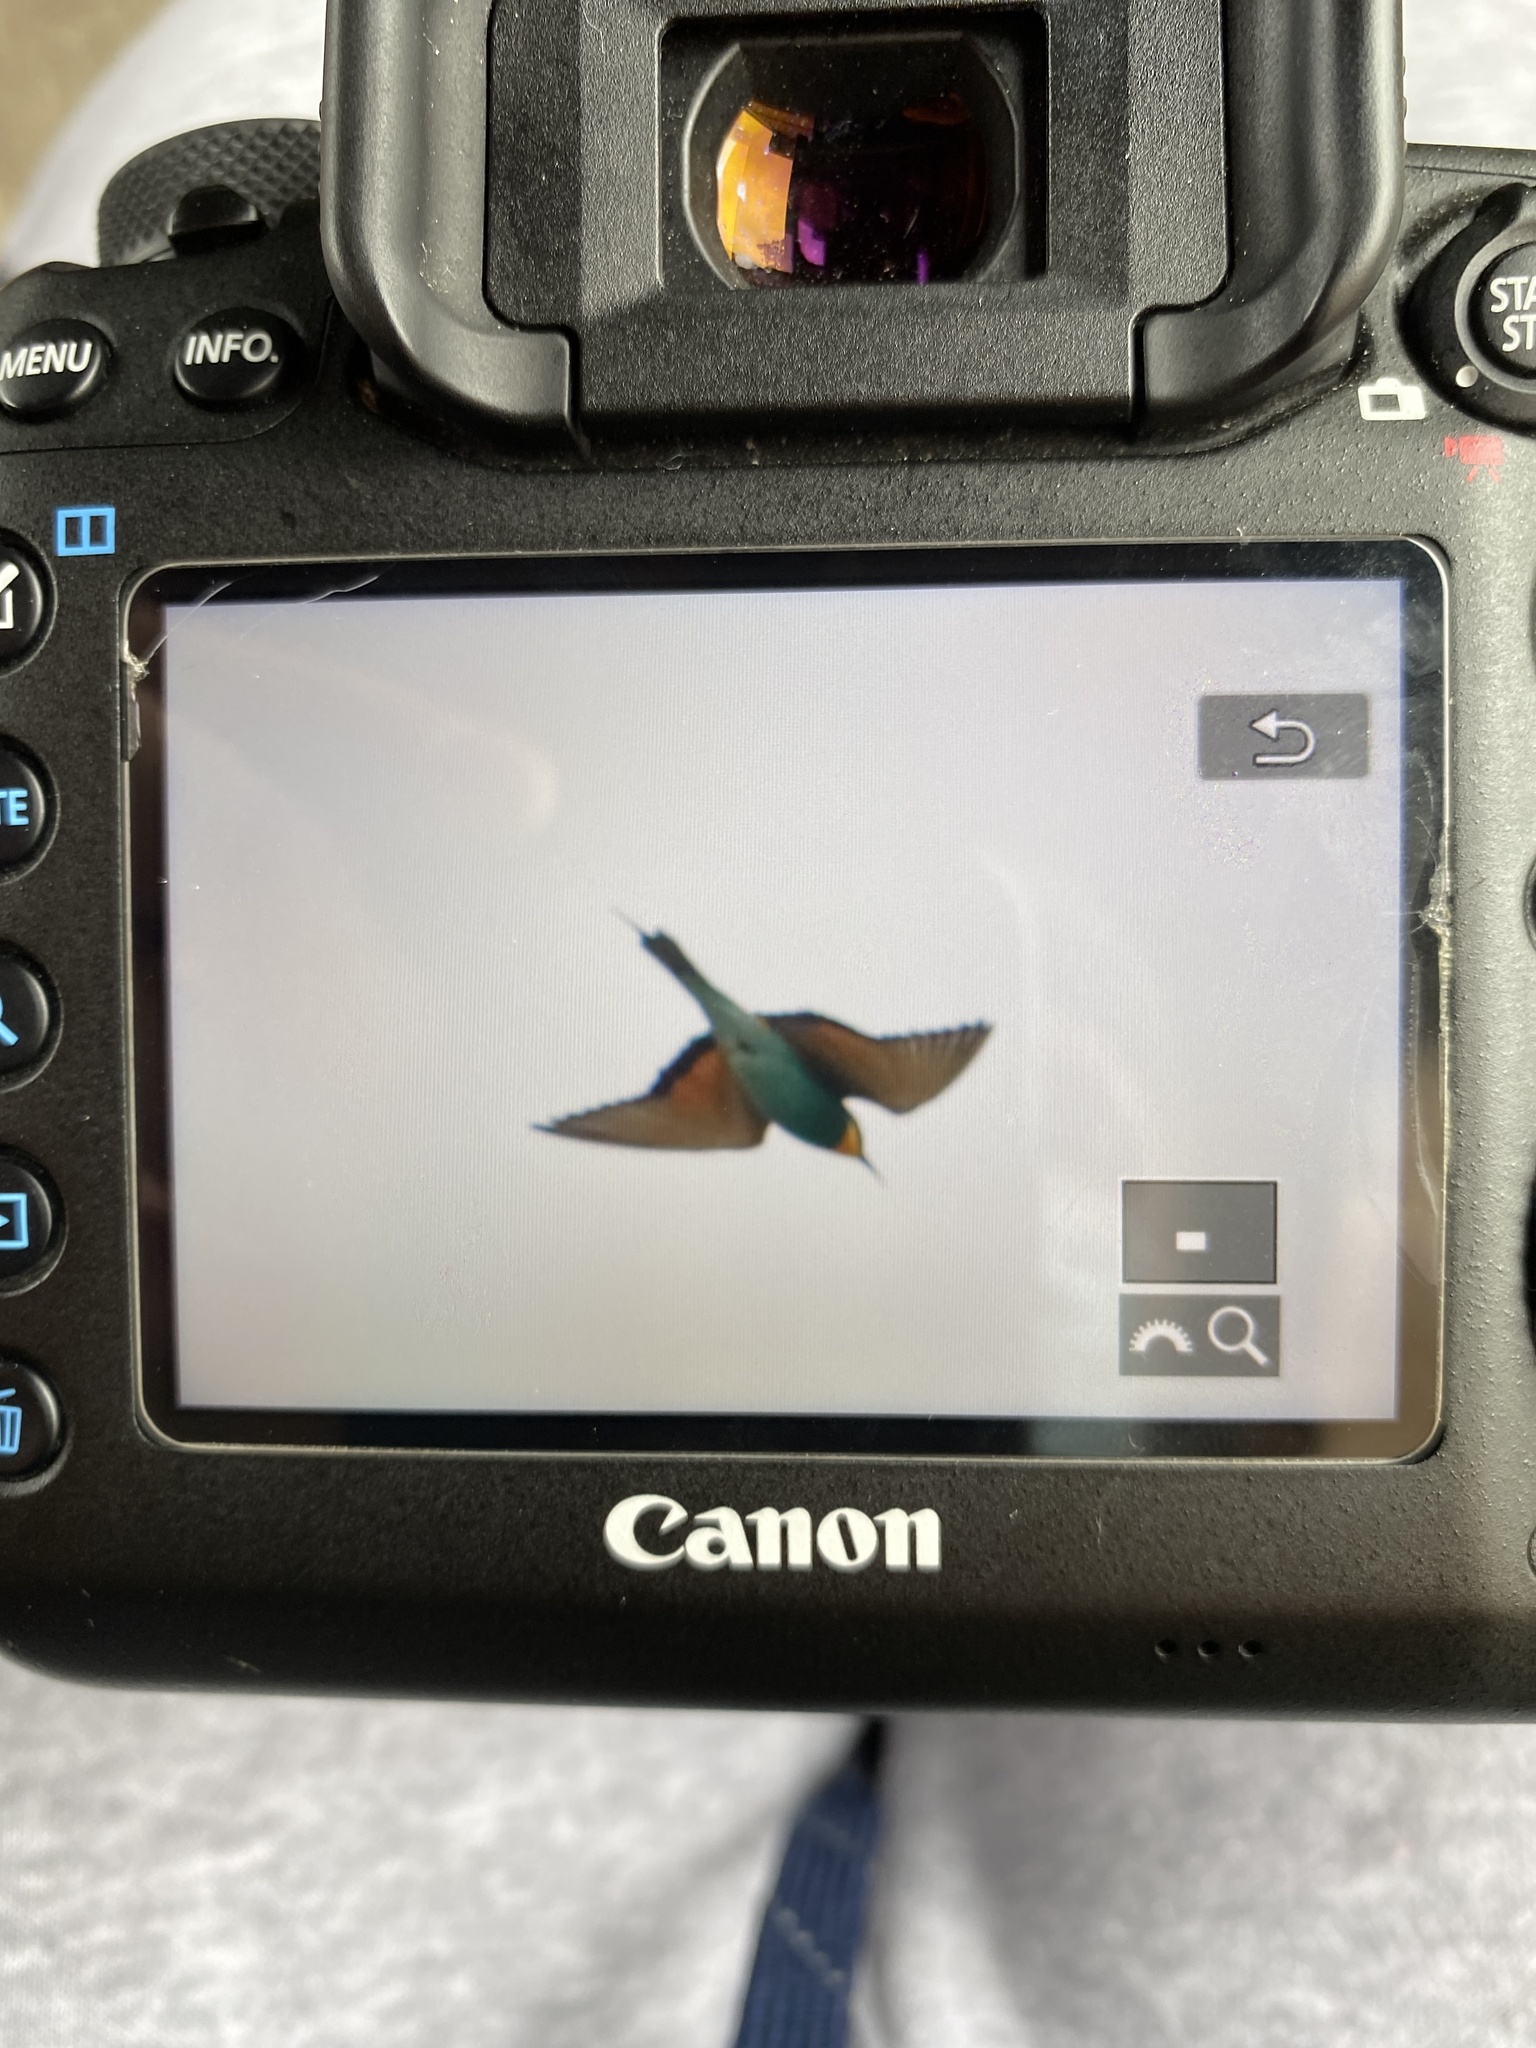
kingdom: Animalia
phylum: Chordata
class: Aves
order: Coraciiformes
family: Meropidae
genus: Merops
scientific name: Merops apiaster
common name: European bee-eater
